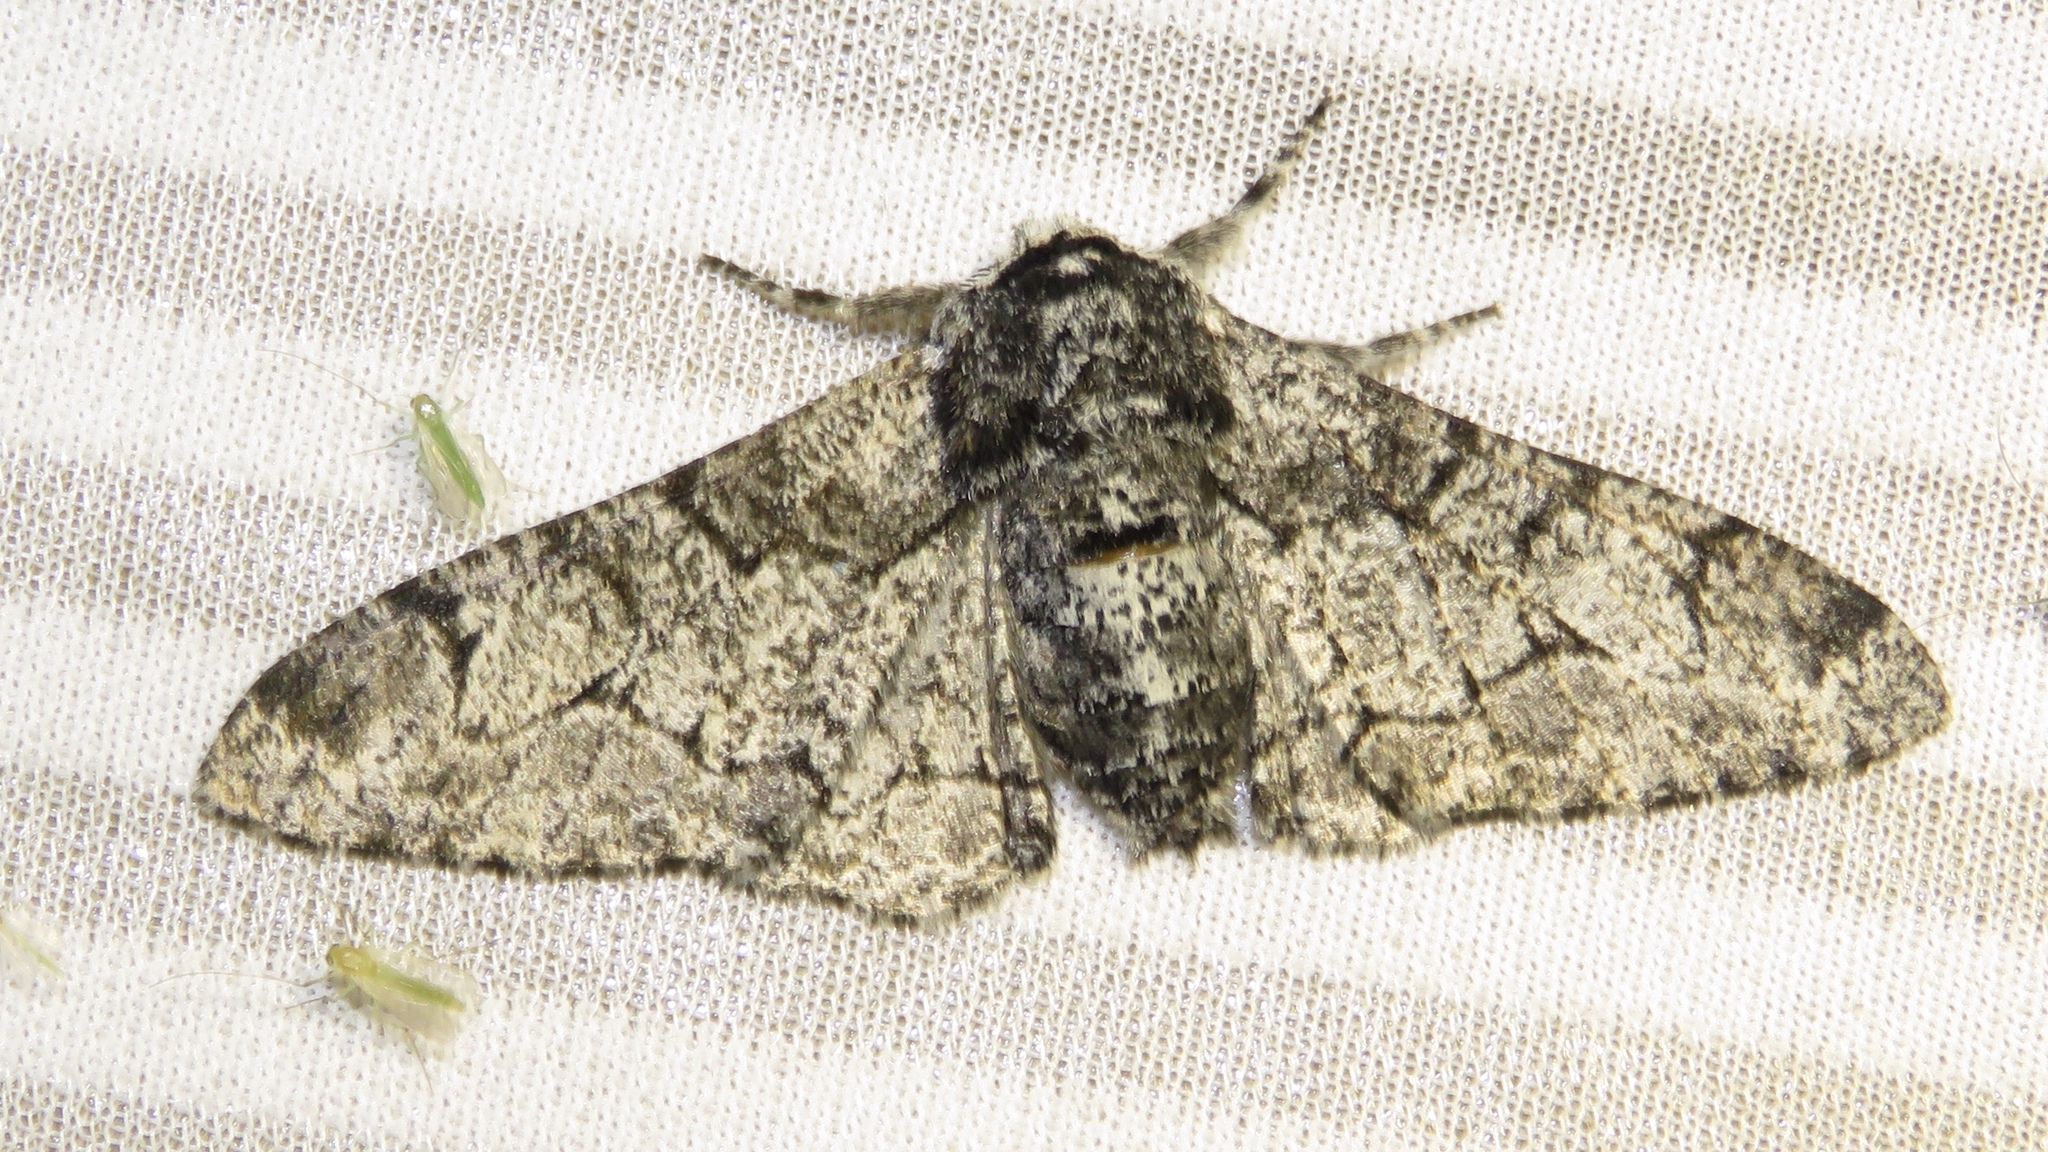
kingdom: Animalia
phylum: Arthropoda
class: Insecta
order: Lepidoptera
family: Geometridae
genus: Biston
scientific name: Biston betularia
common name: Peppered moth
